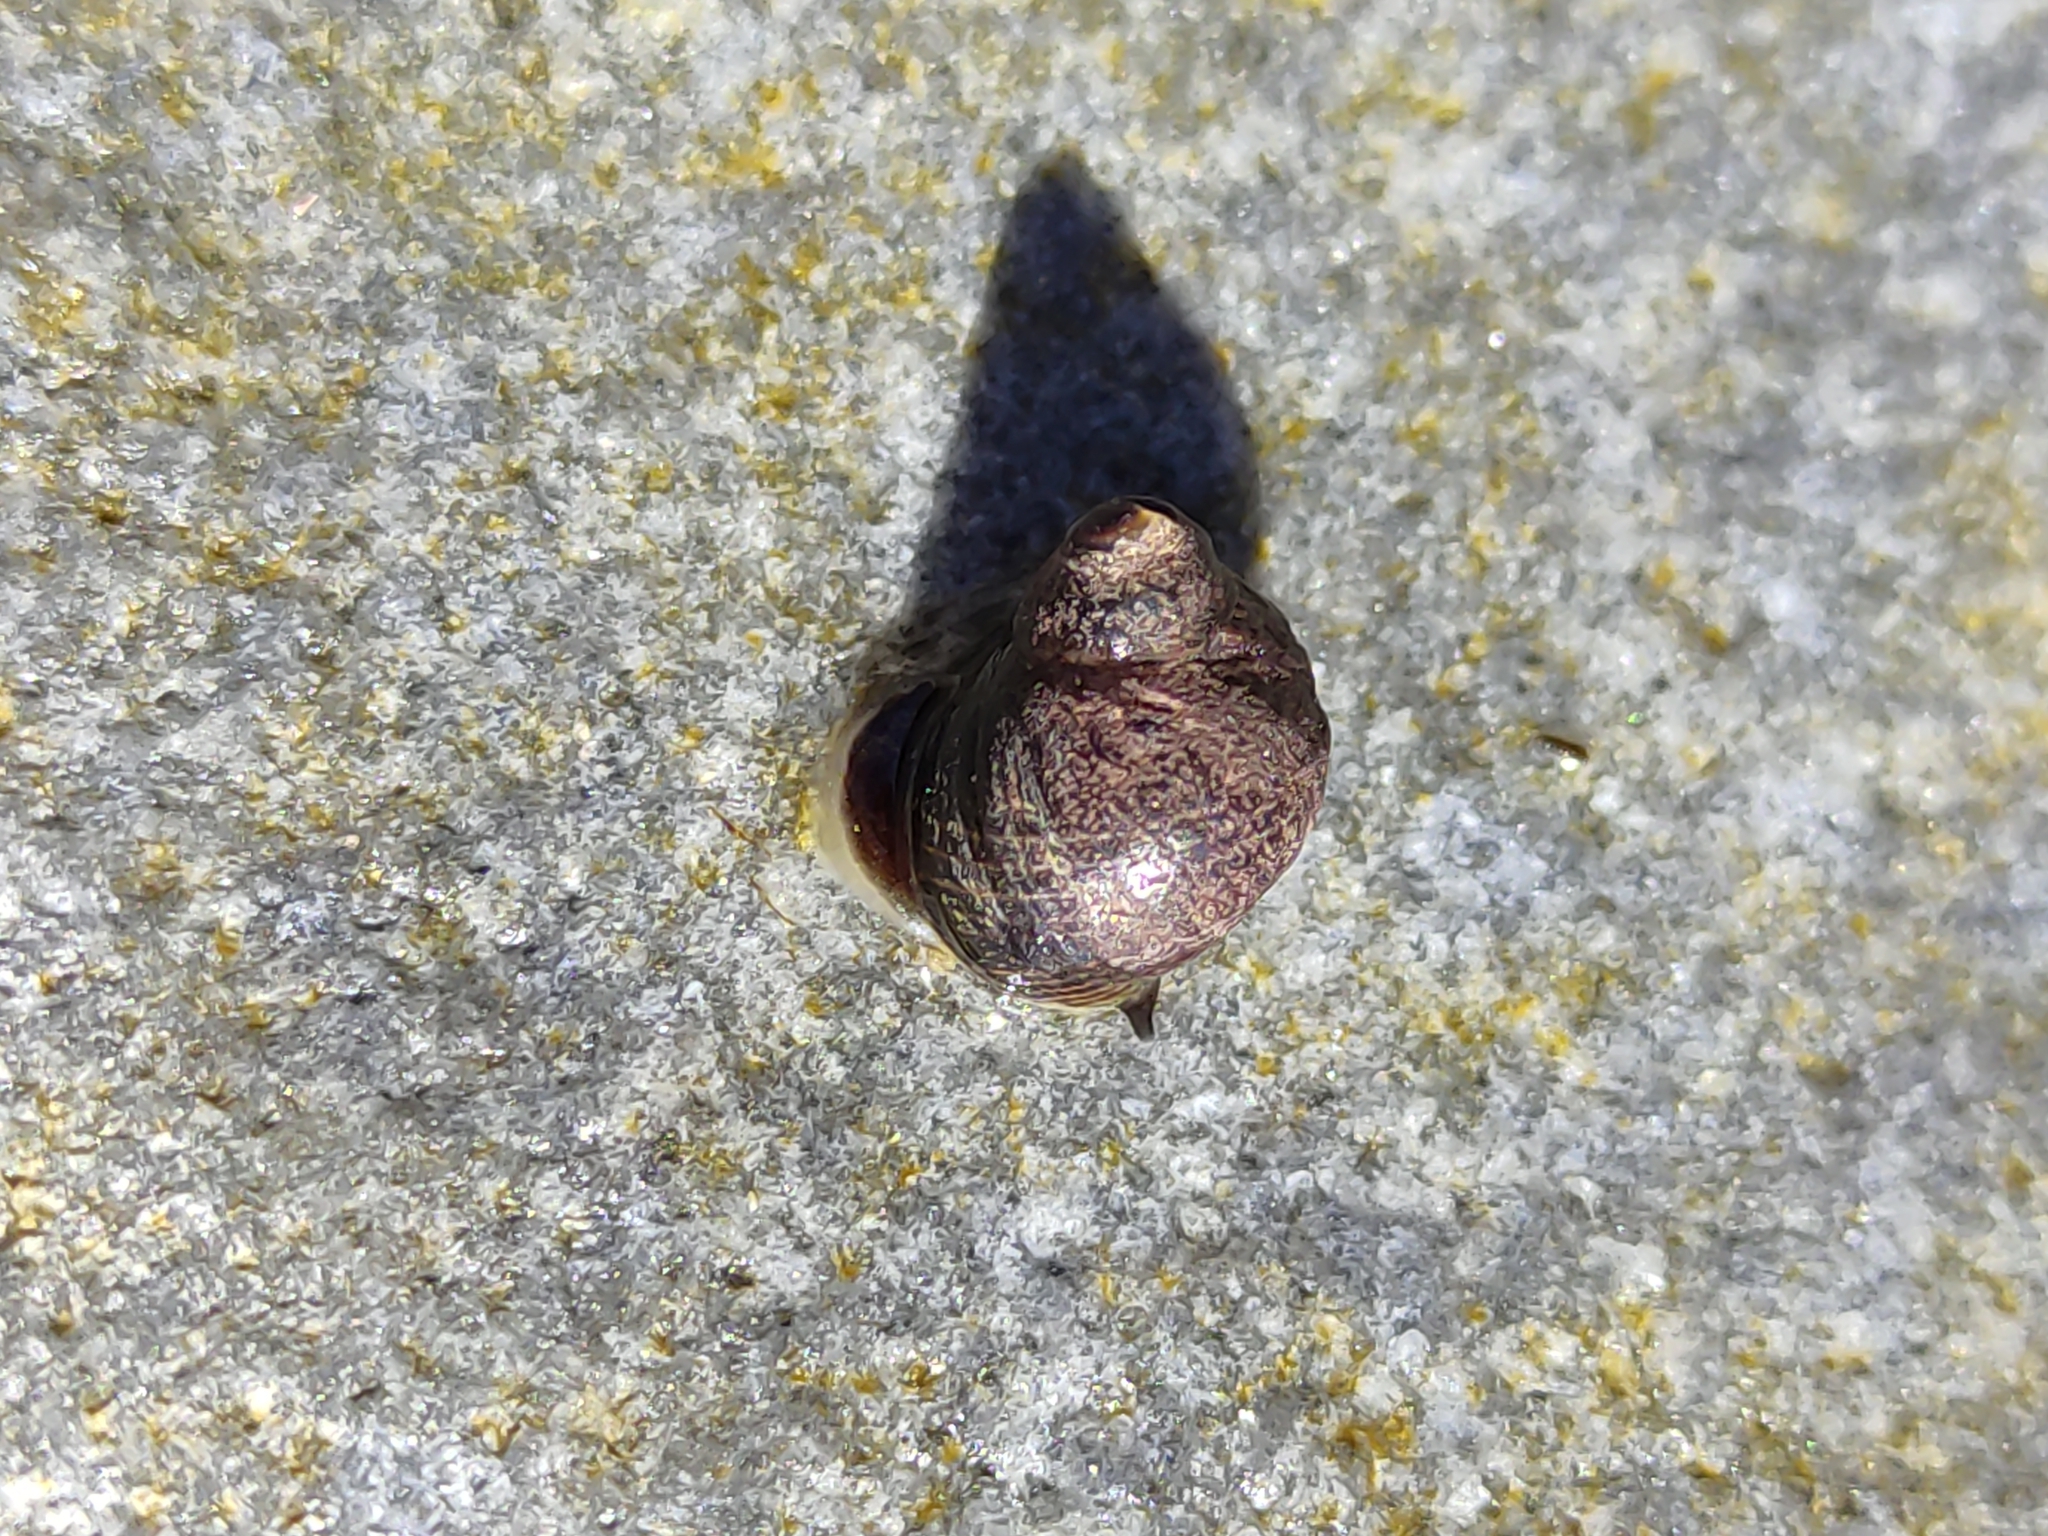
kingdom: Animalia
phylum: Mollusca
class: Gastropoda
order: Littorinimorpha
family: Littorinidae
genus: Austrolittorina
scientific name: Austrolittorina cincta
